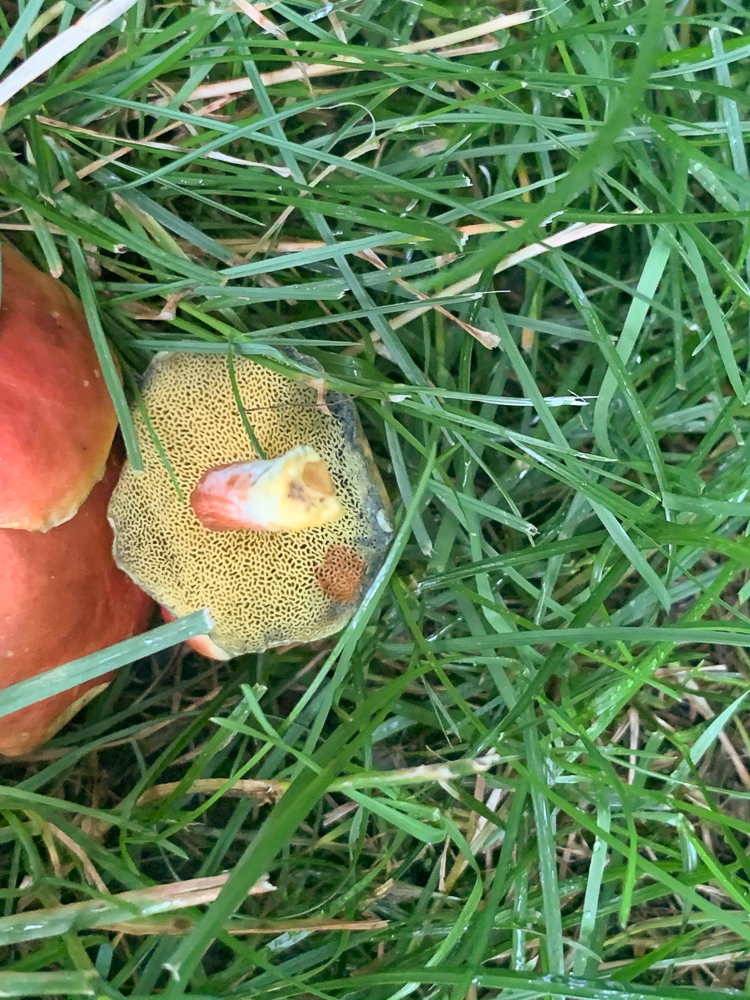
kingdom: Fungi
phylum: Basidiomycota
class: Agaricomycetes
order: Boletales
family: Boletaceae
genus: Hortiboletus
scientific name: Hortiboletus rubellus
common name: Ruby bolete
